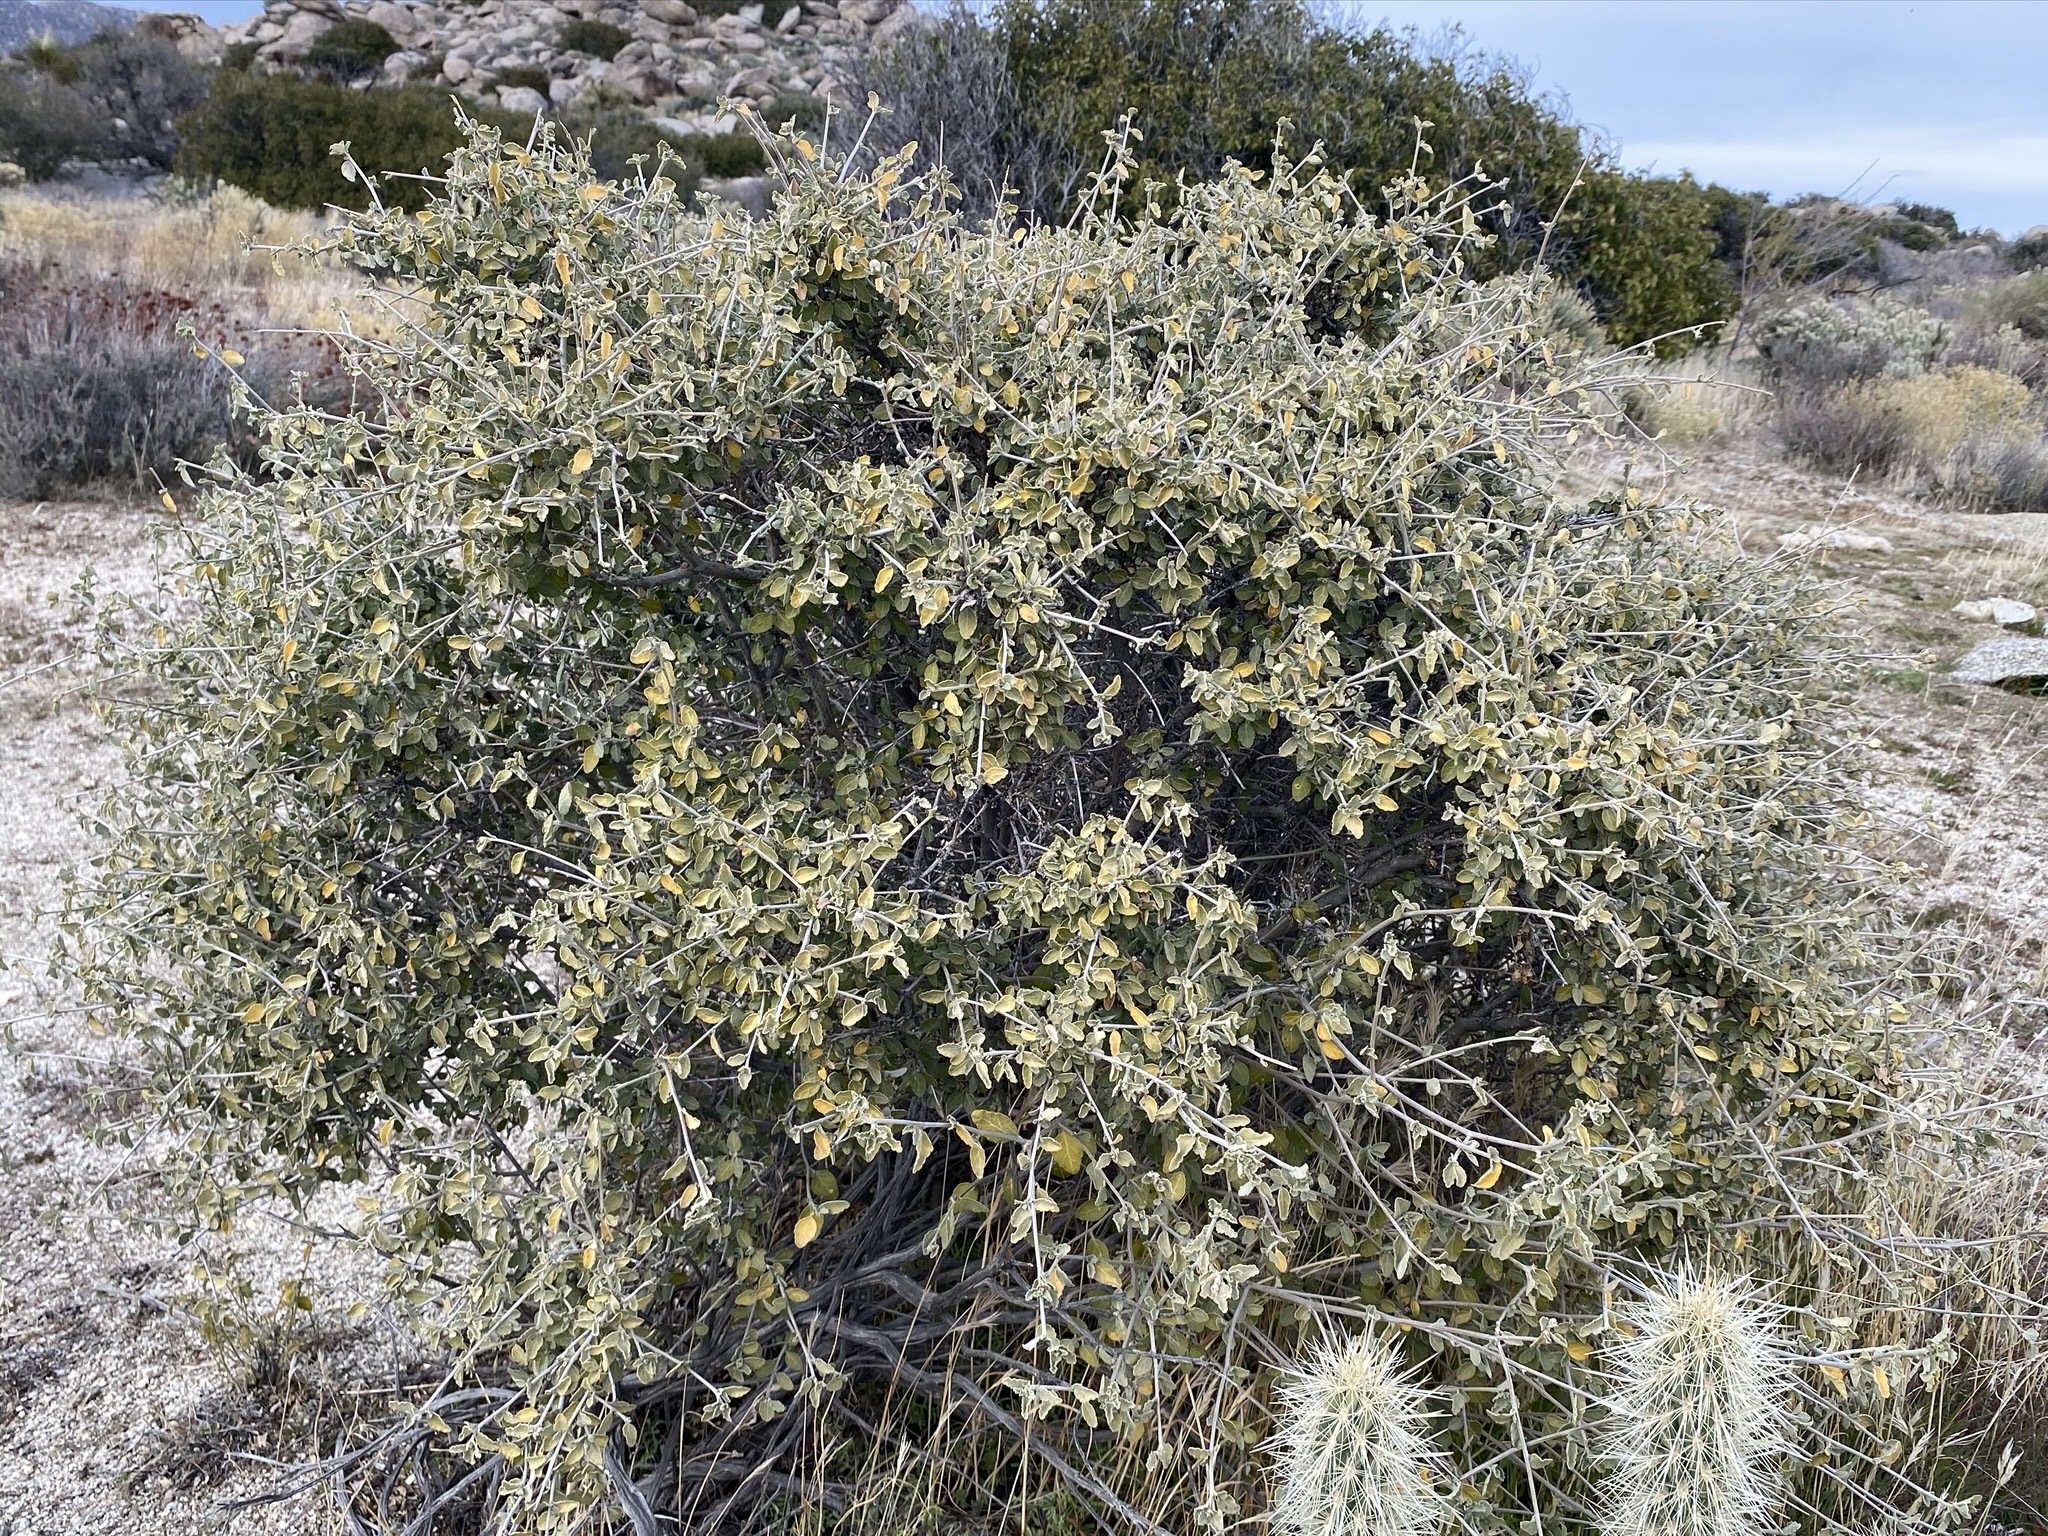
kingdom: Plantae
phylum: Tracheophyta
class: Magnoliopsida
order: Malpighiales
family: Euphorbiaceae
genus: Bernardia
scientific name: Bernardia incana
